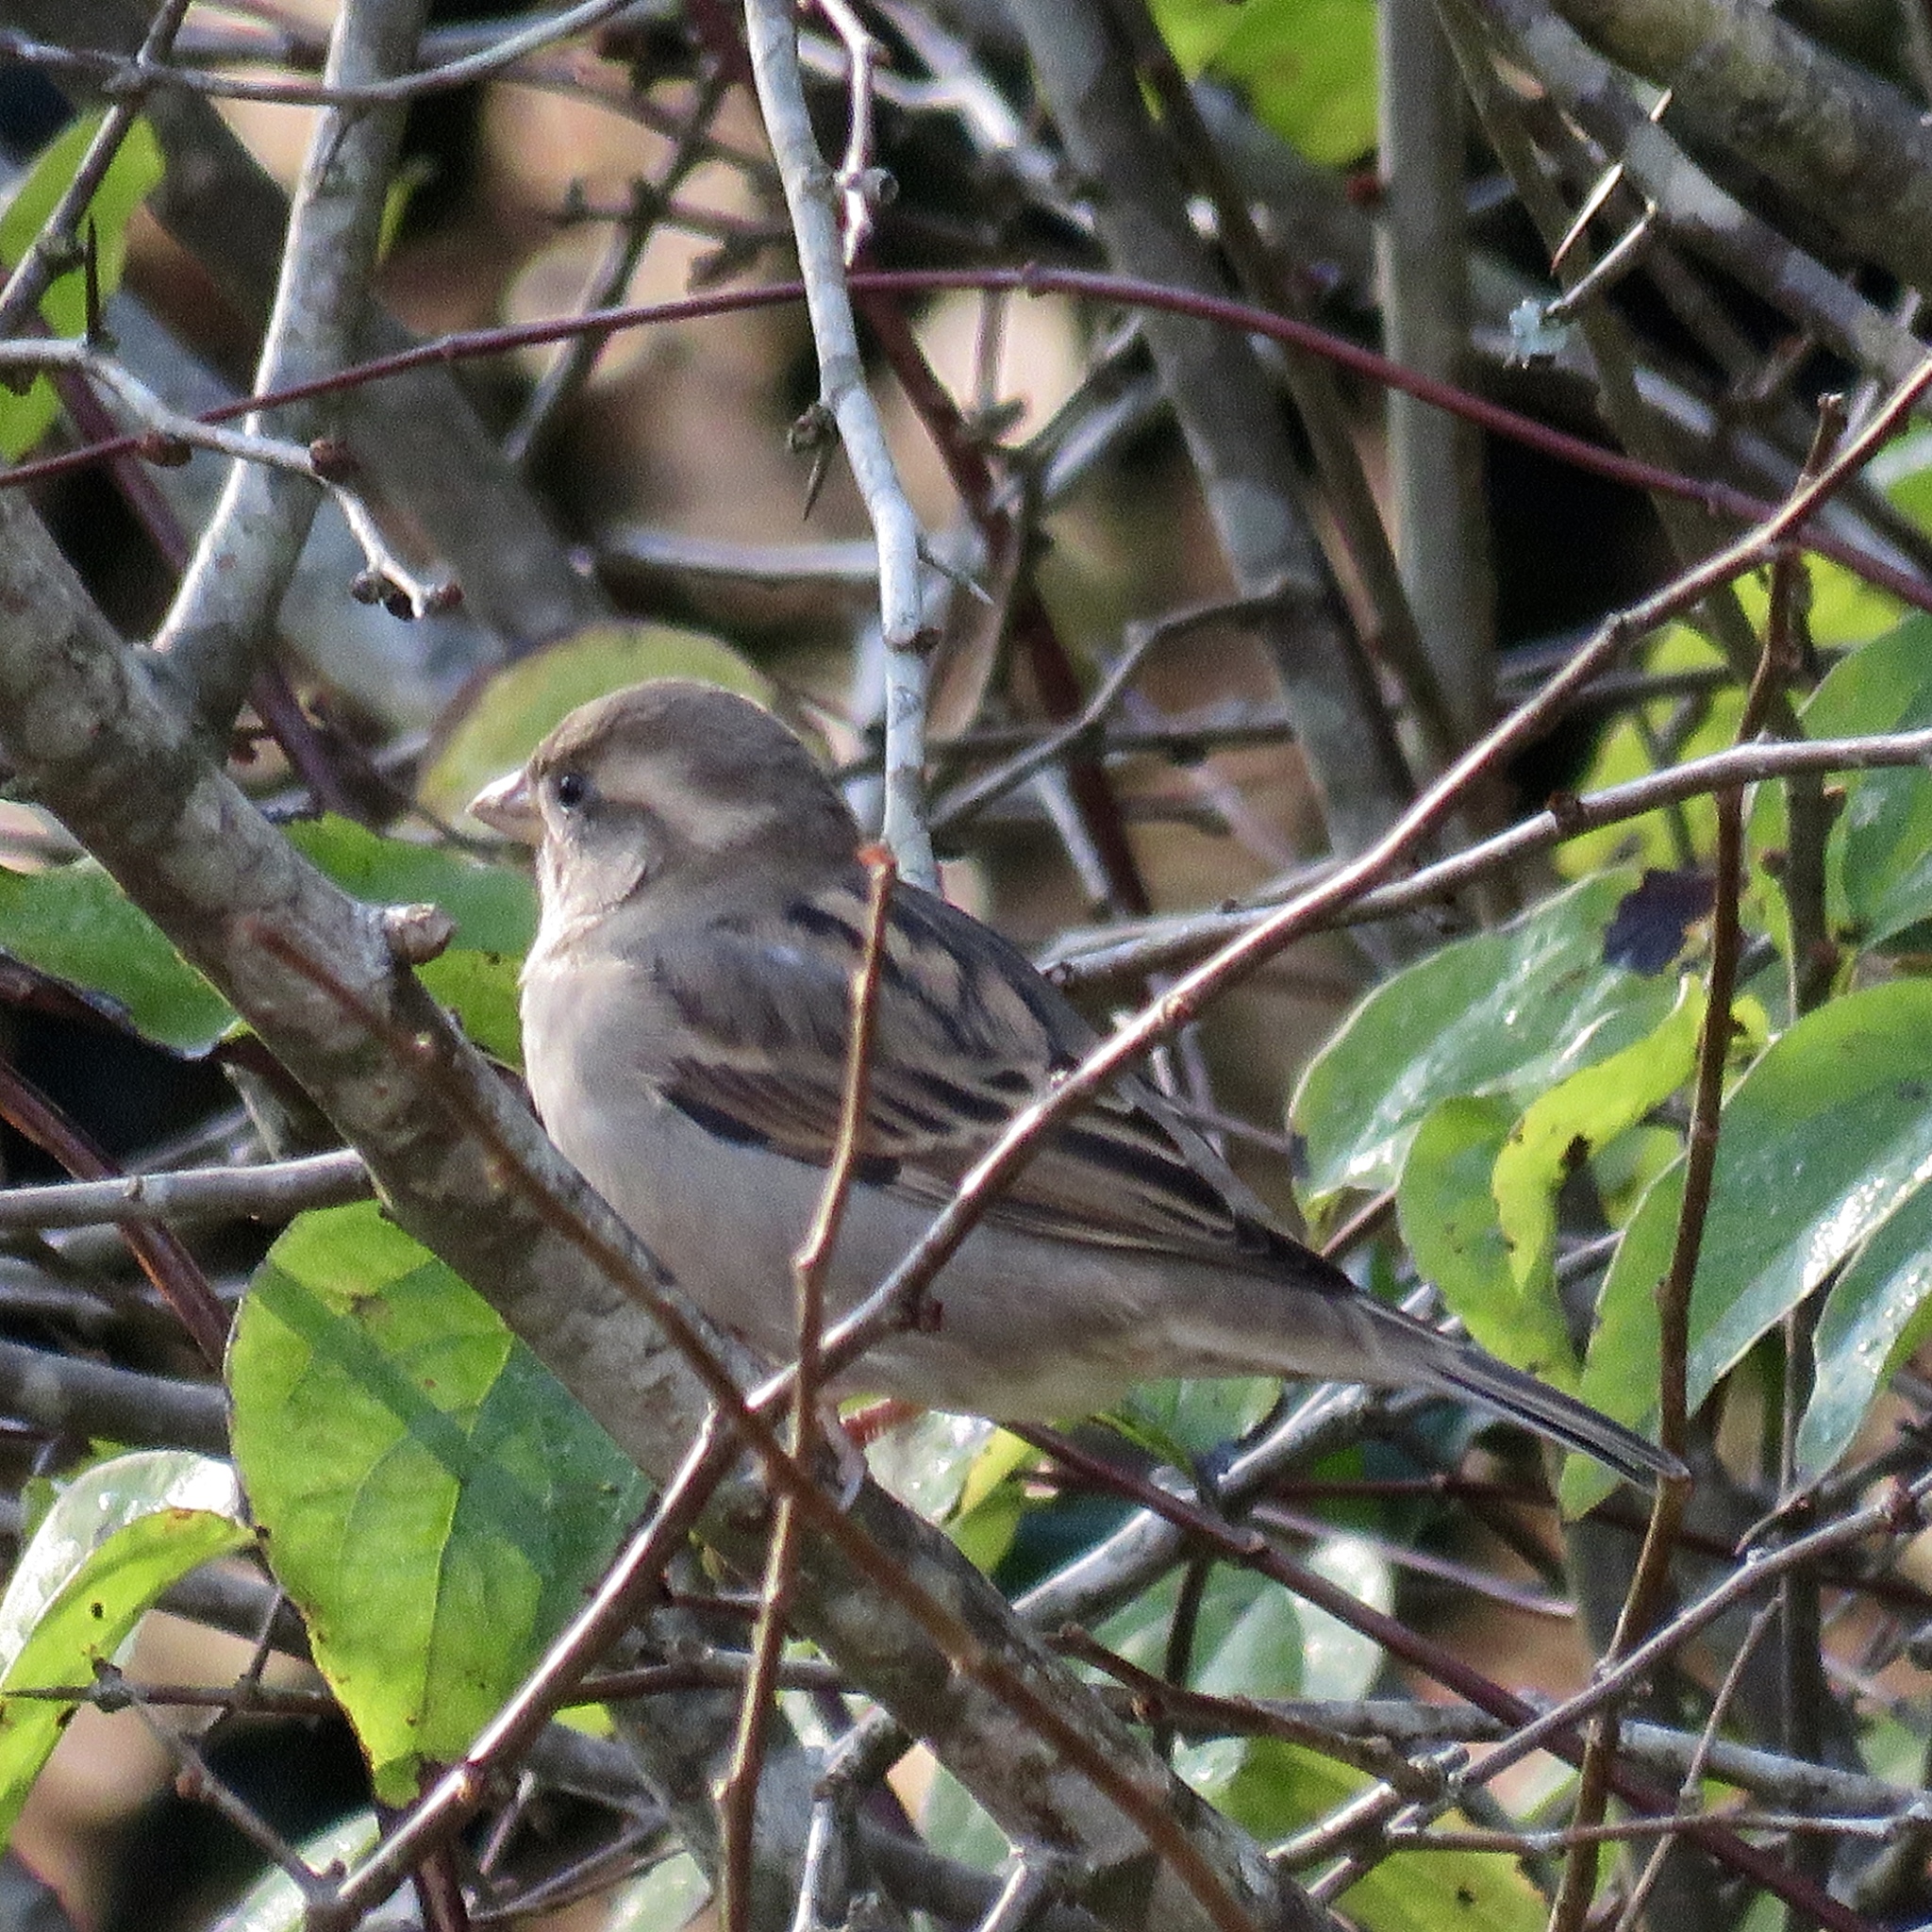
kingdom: Animalia
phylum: Chordata
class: Aves
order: Passeriformes
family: Passeridae
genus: Passer
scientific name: Passer domesticus
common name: House sparrow
